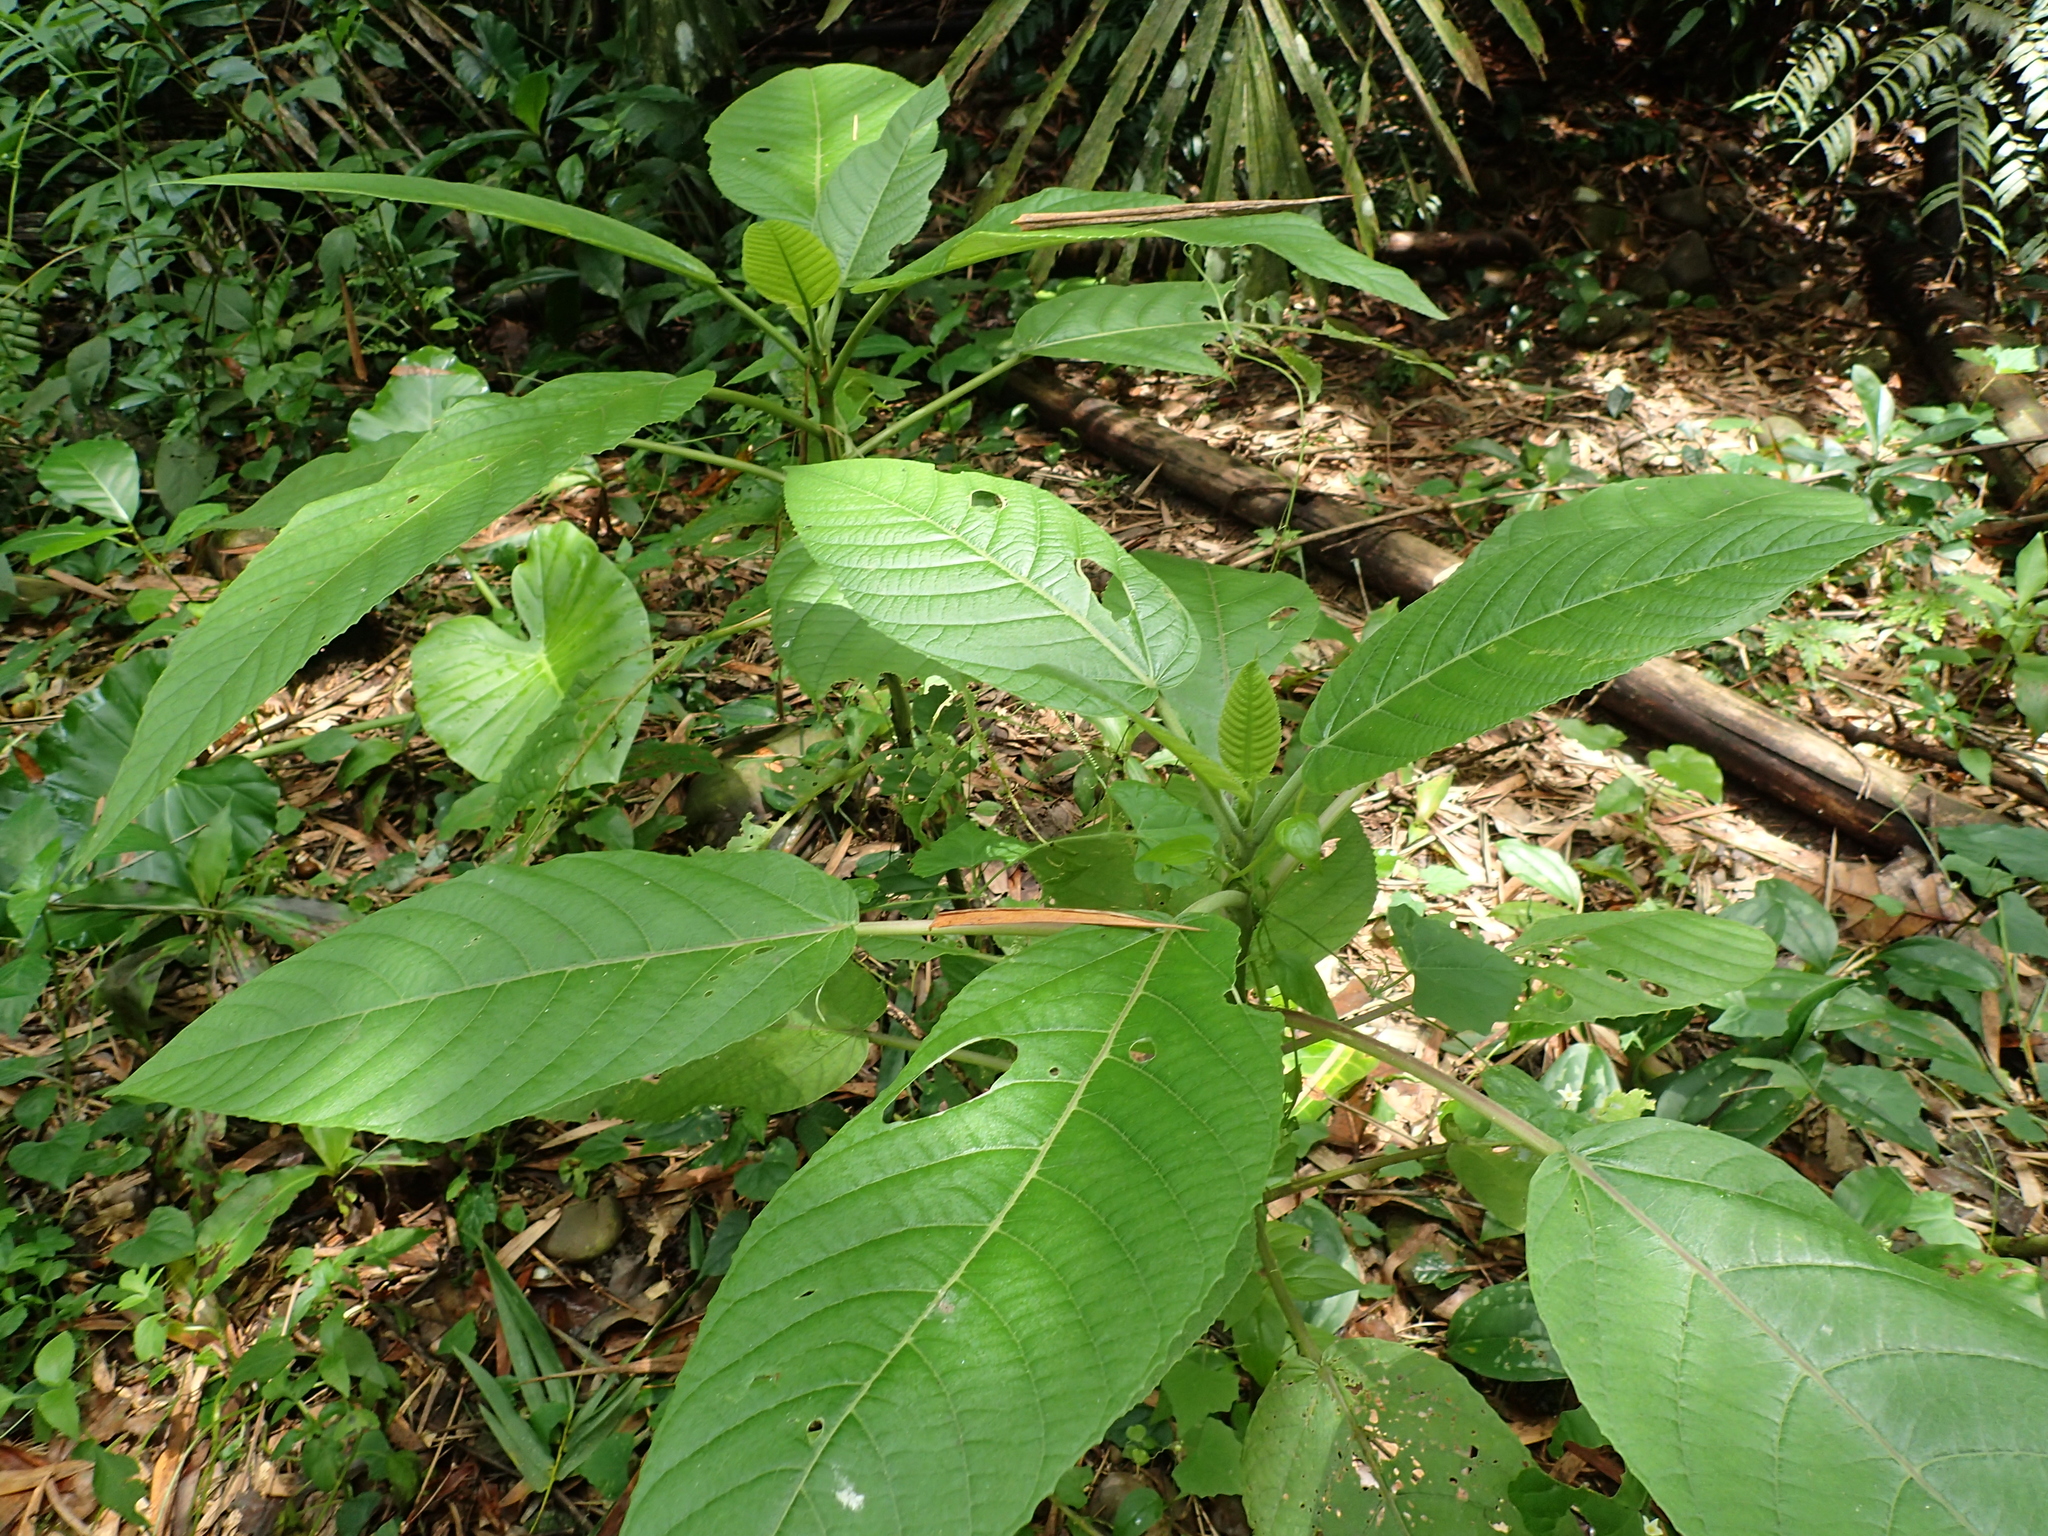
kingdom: Plantae
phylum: Tracheophyta
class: Magnoliopsida
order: Rosales
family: Urticaceae
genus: Dendrocnide
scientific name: Dendrocnide meyeniana
